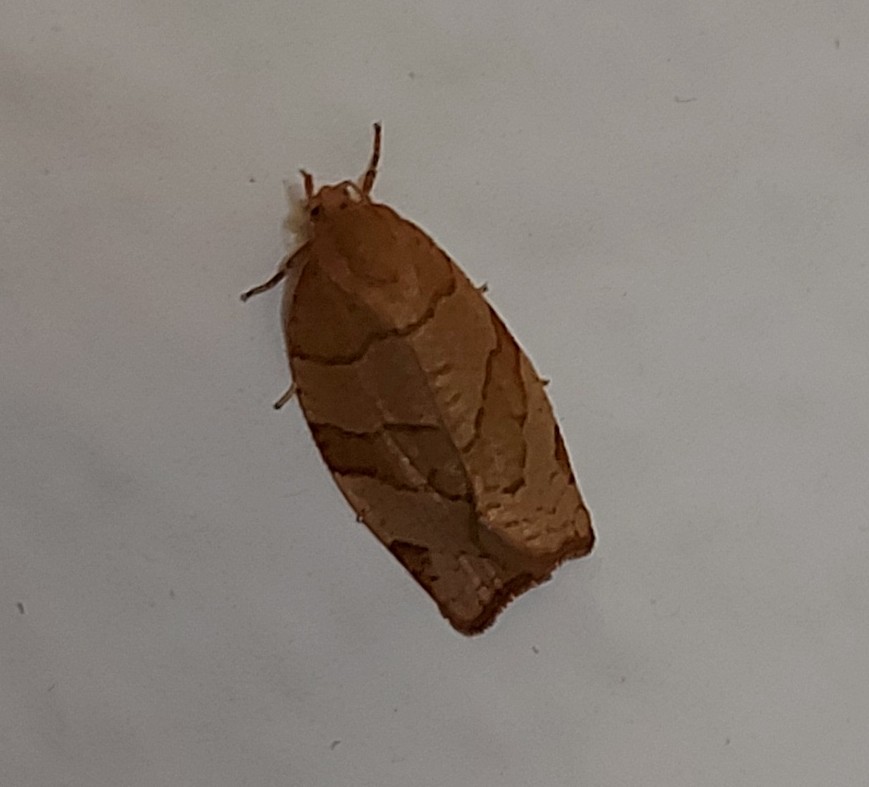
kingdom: Animalia
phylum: Arthropoda
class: Insecta
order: Lepidoptera
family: Tortricidae
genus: Pandemis
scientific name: Pandemis cerasana
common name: Barred fruit-tree tortrix
